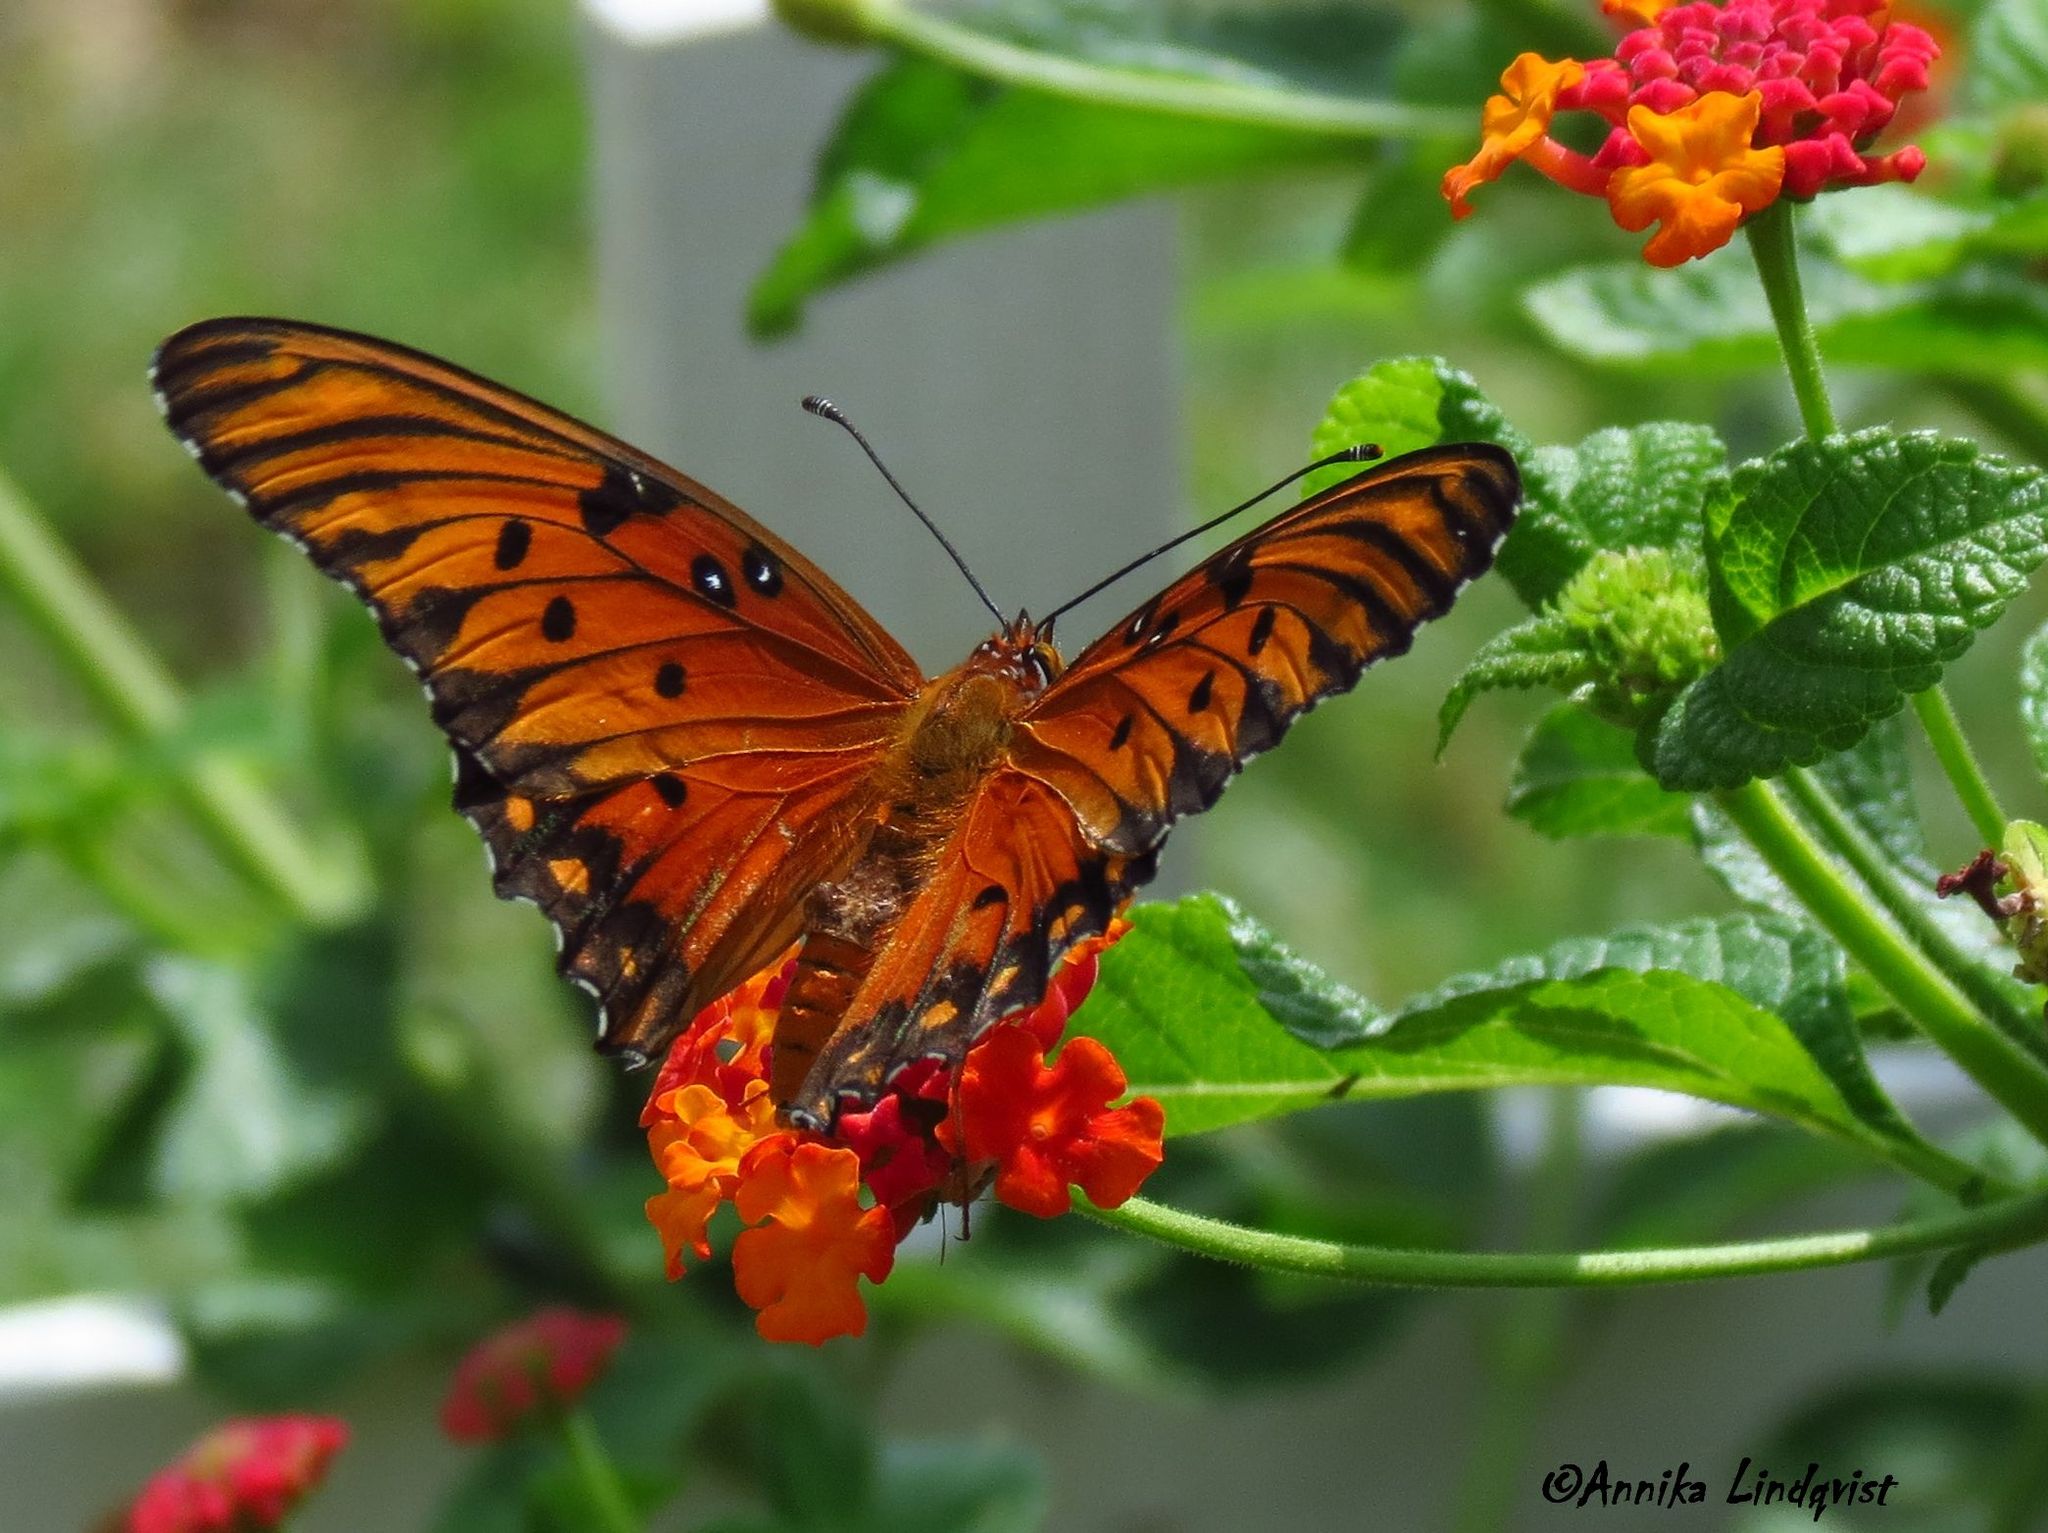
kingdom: Animalia
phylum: Arthropoda
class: Insecta
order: Lepidoptera
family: Nymphalidae
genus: Dione
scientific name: Dione vanillae
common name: Gulf fritillary
